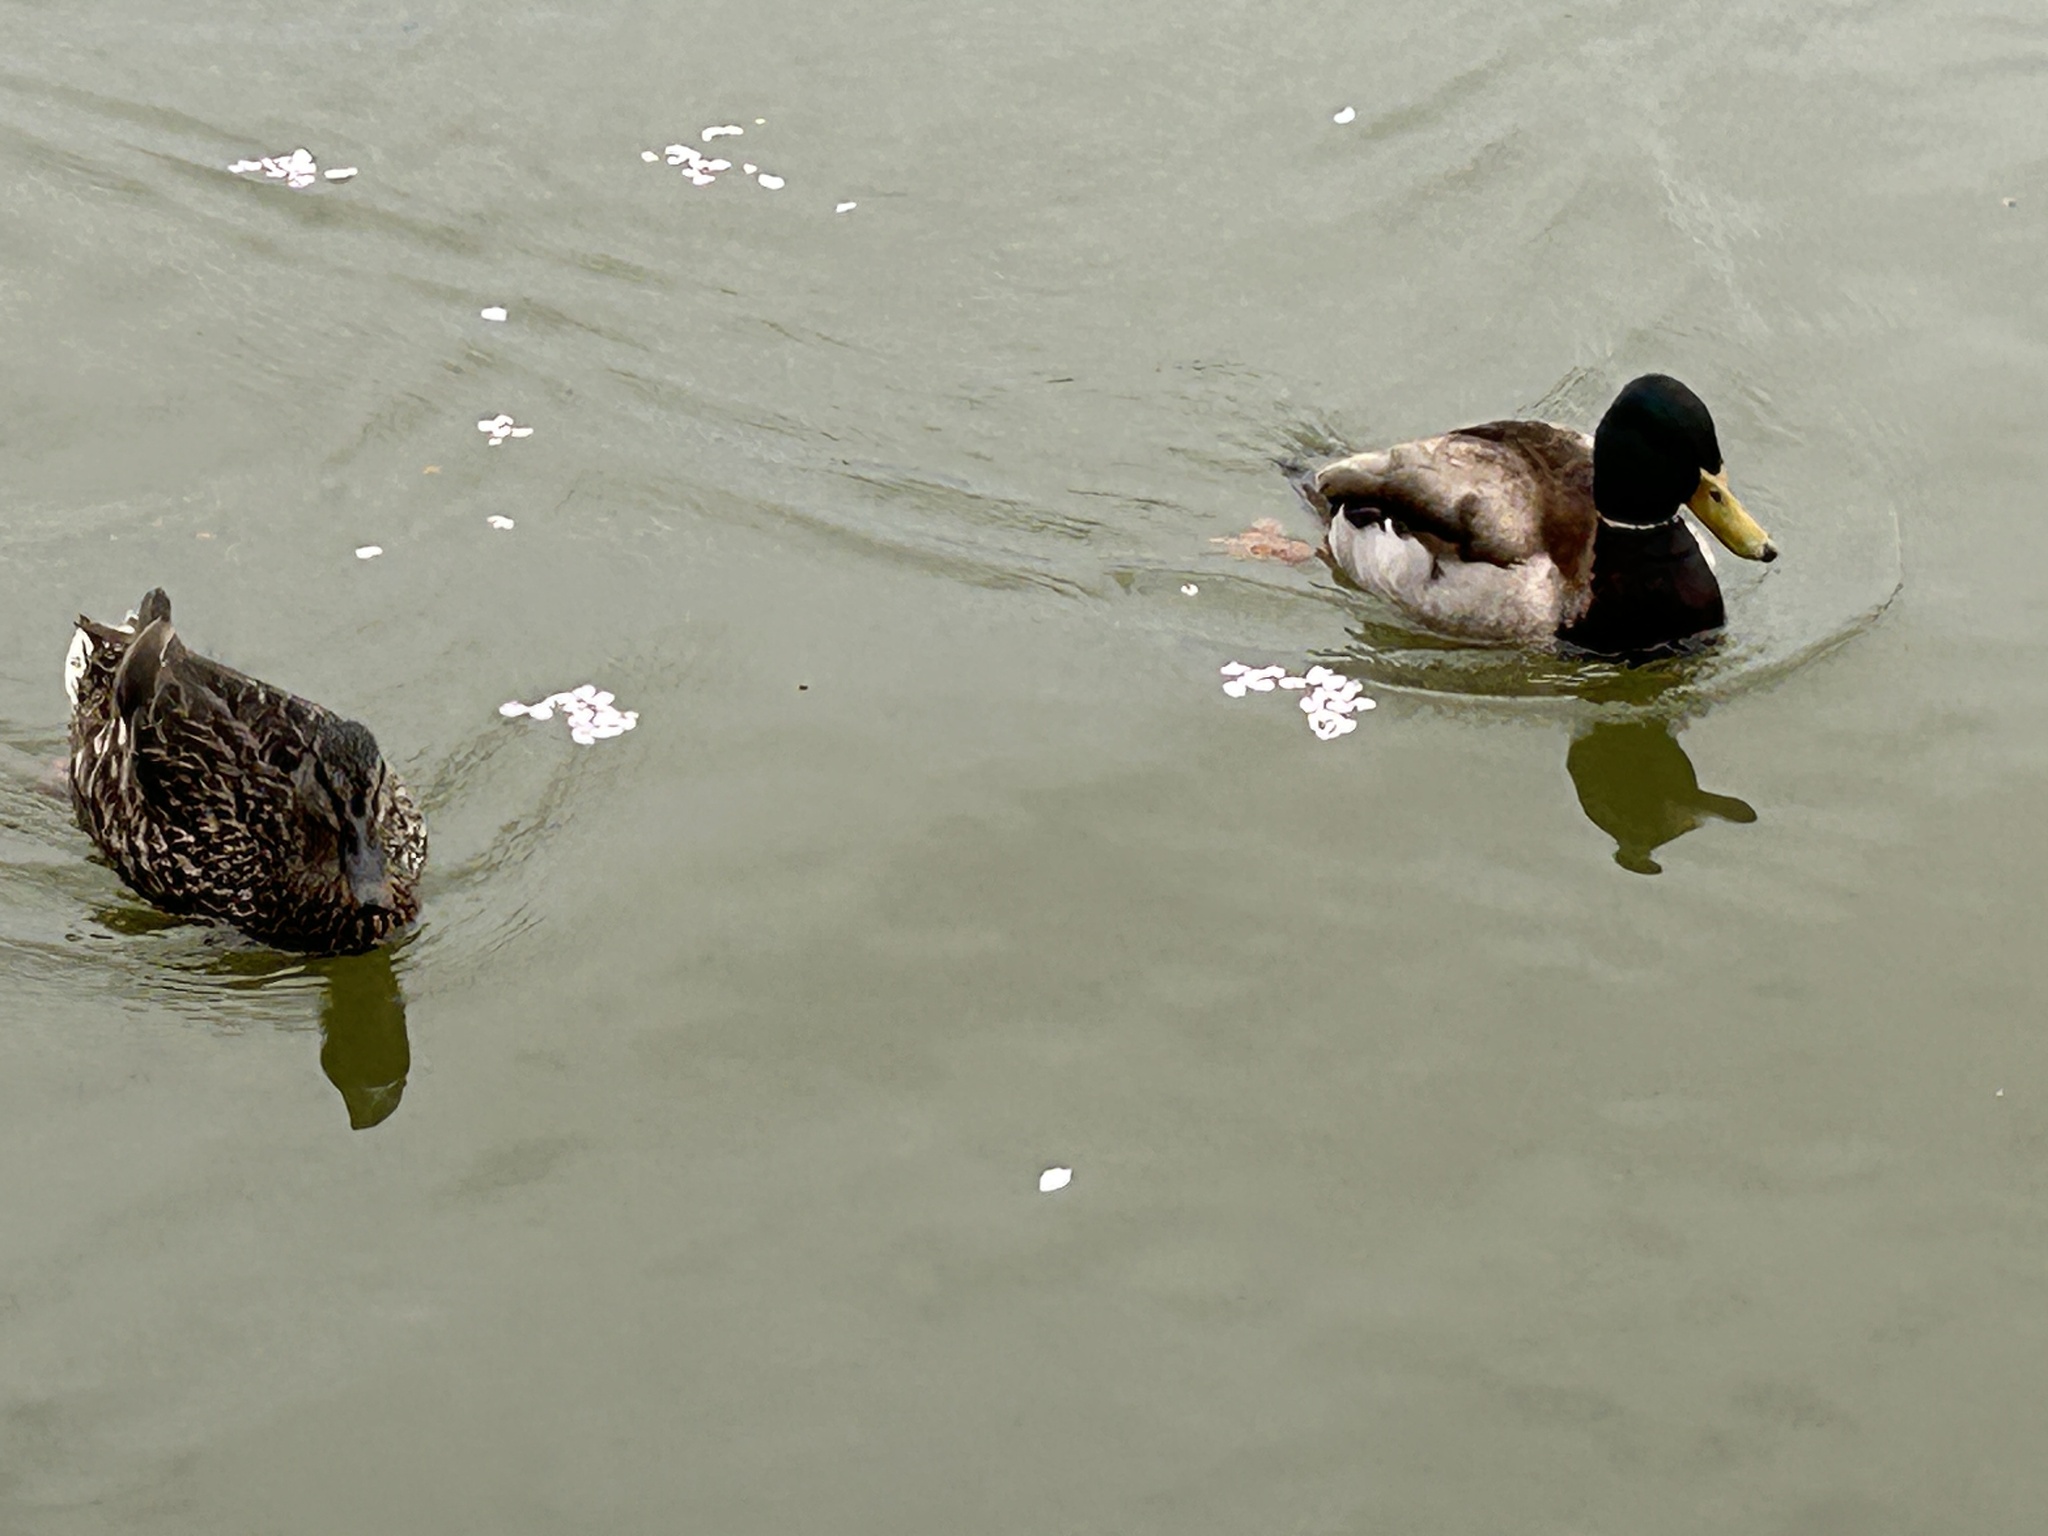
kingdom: Animalia
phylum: Chordata
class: Aves
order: Anseriformes
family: Anatidae
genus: Anas
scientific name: Anas platyrhynchos
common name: Mallard
